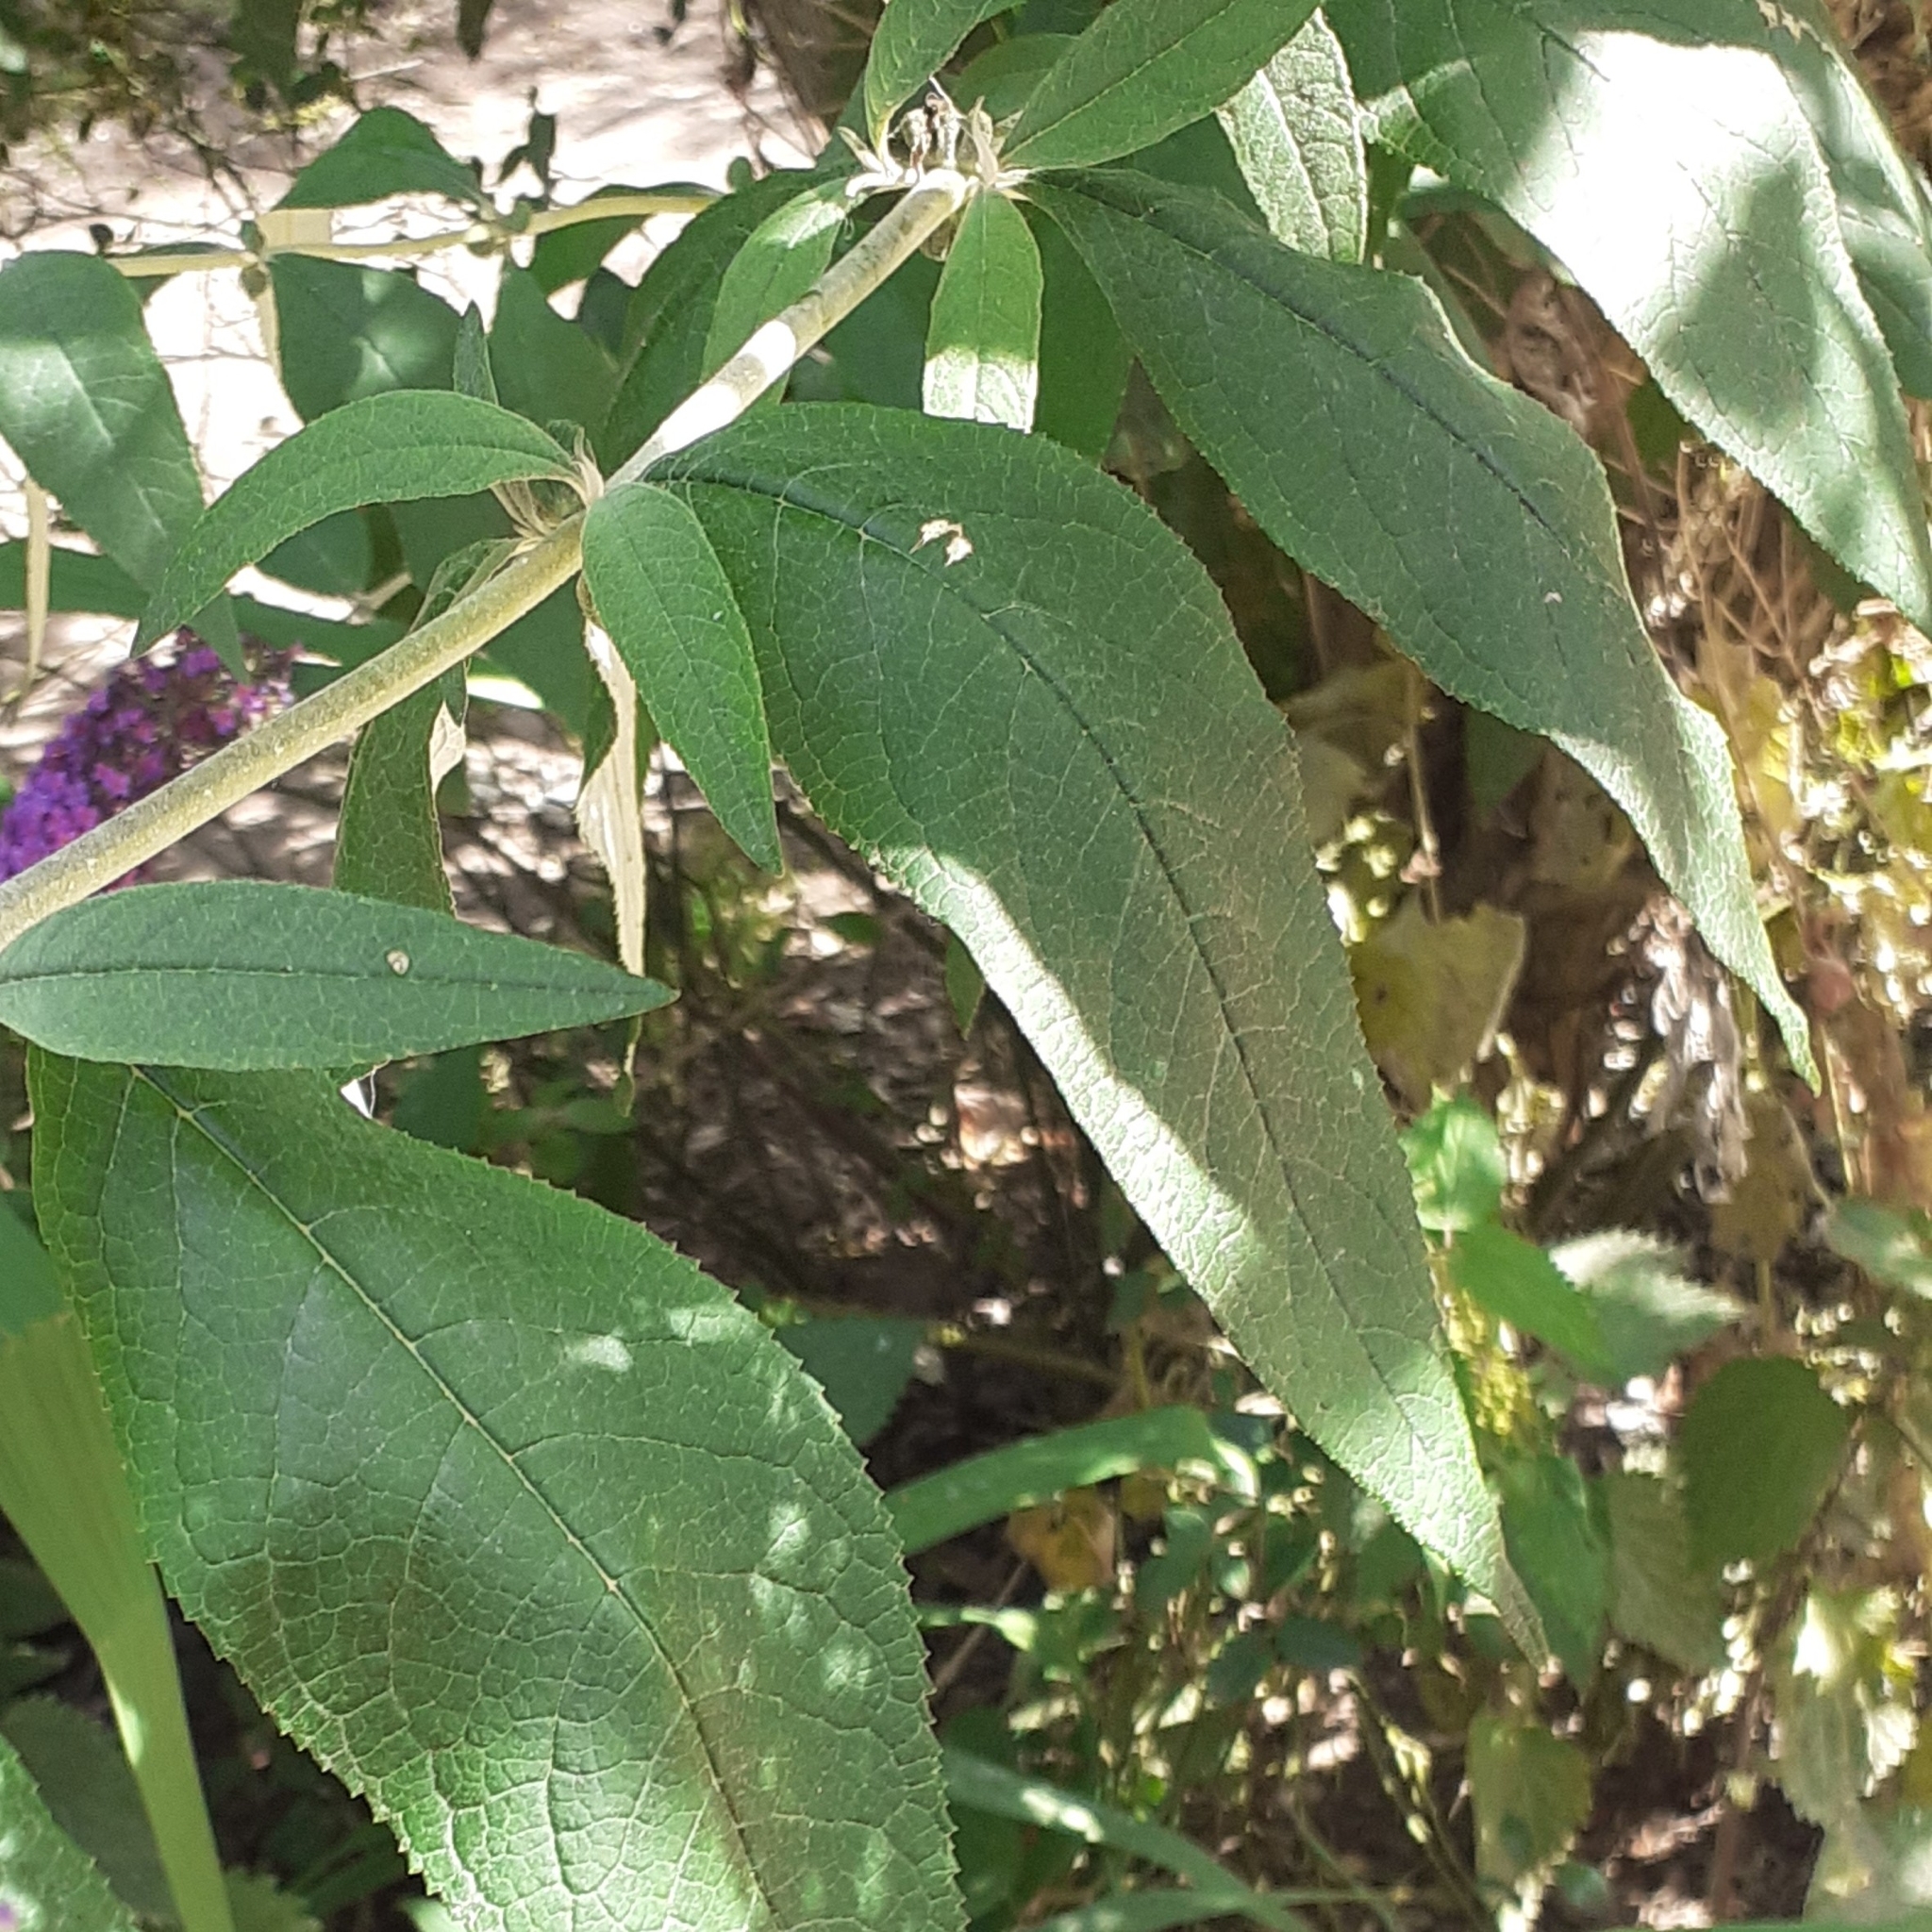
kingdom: Plantae
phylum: Tracheophyta
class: Magnoliopsida
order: Lamiales
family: Scrophulariaceae
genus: Buddleja
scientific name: Buddleja davidii
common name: Butterfly-bush
